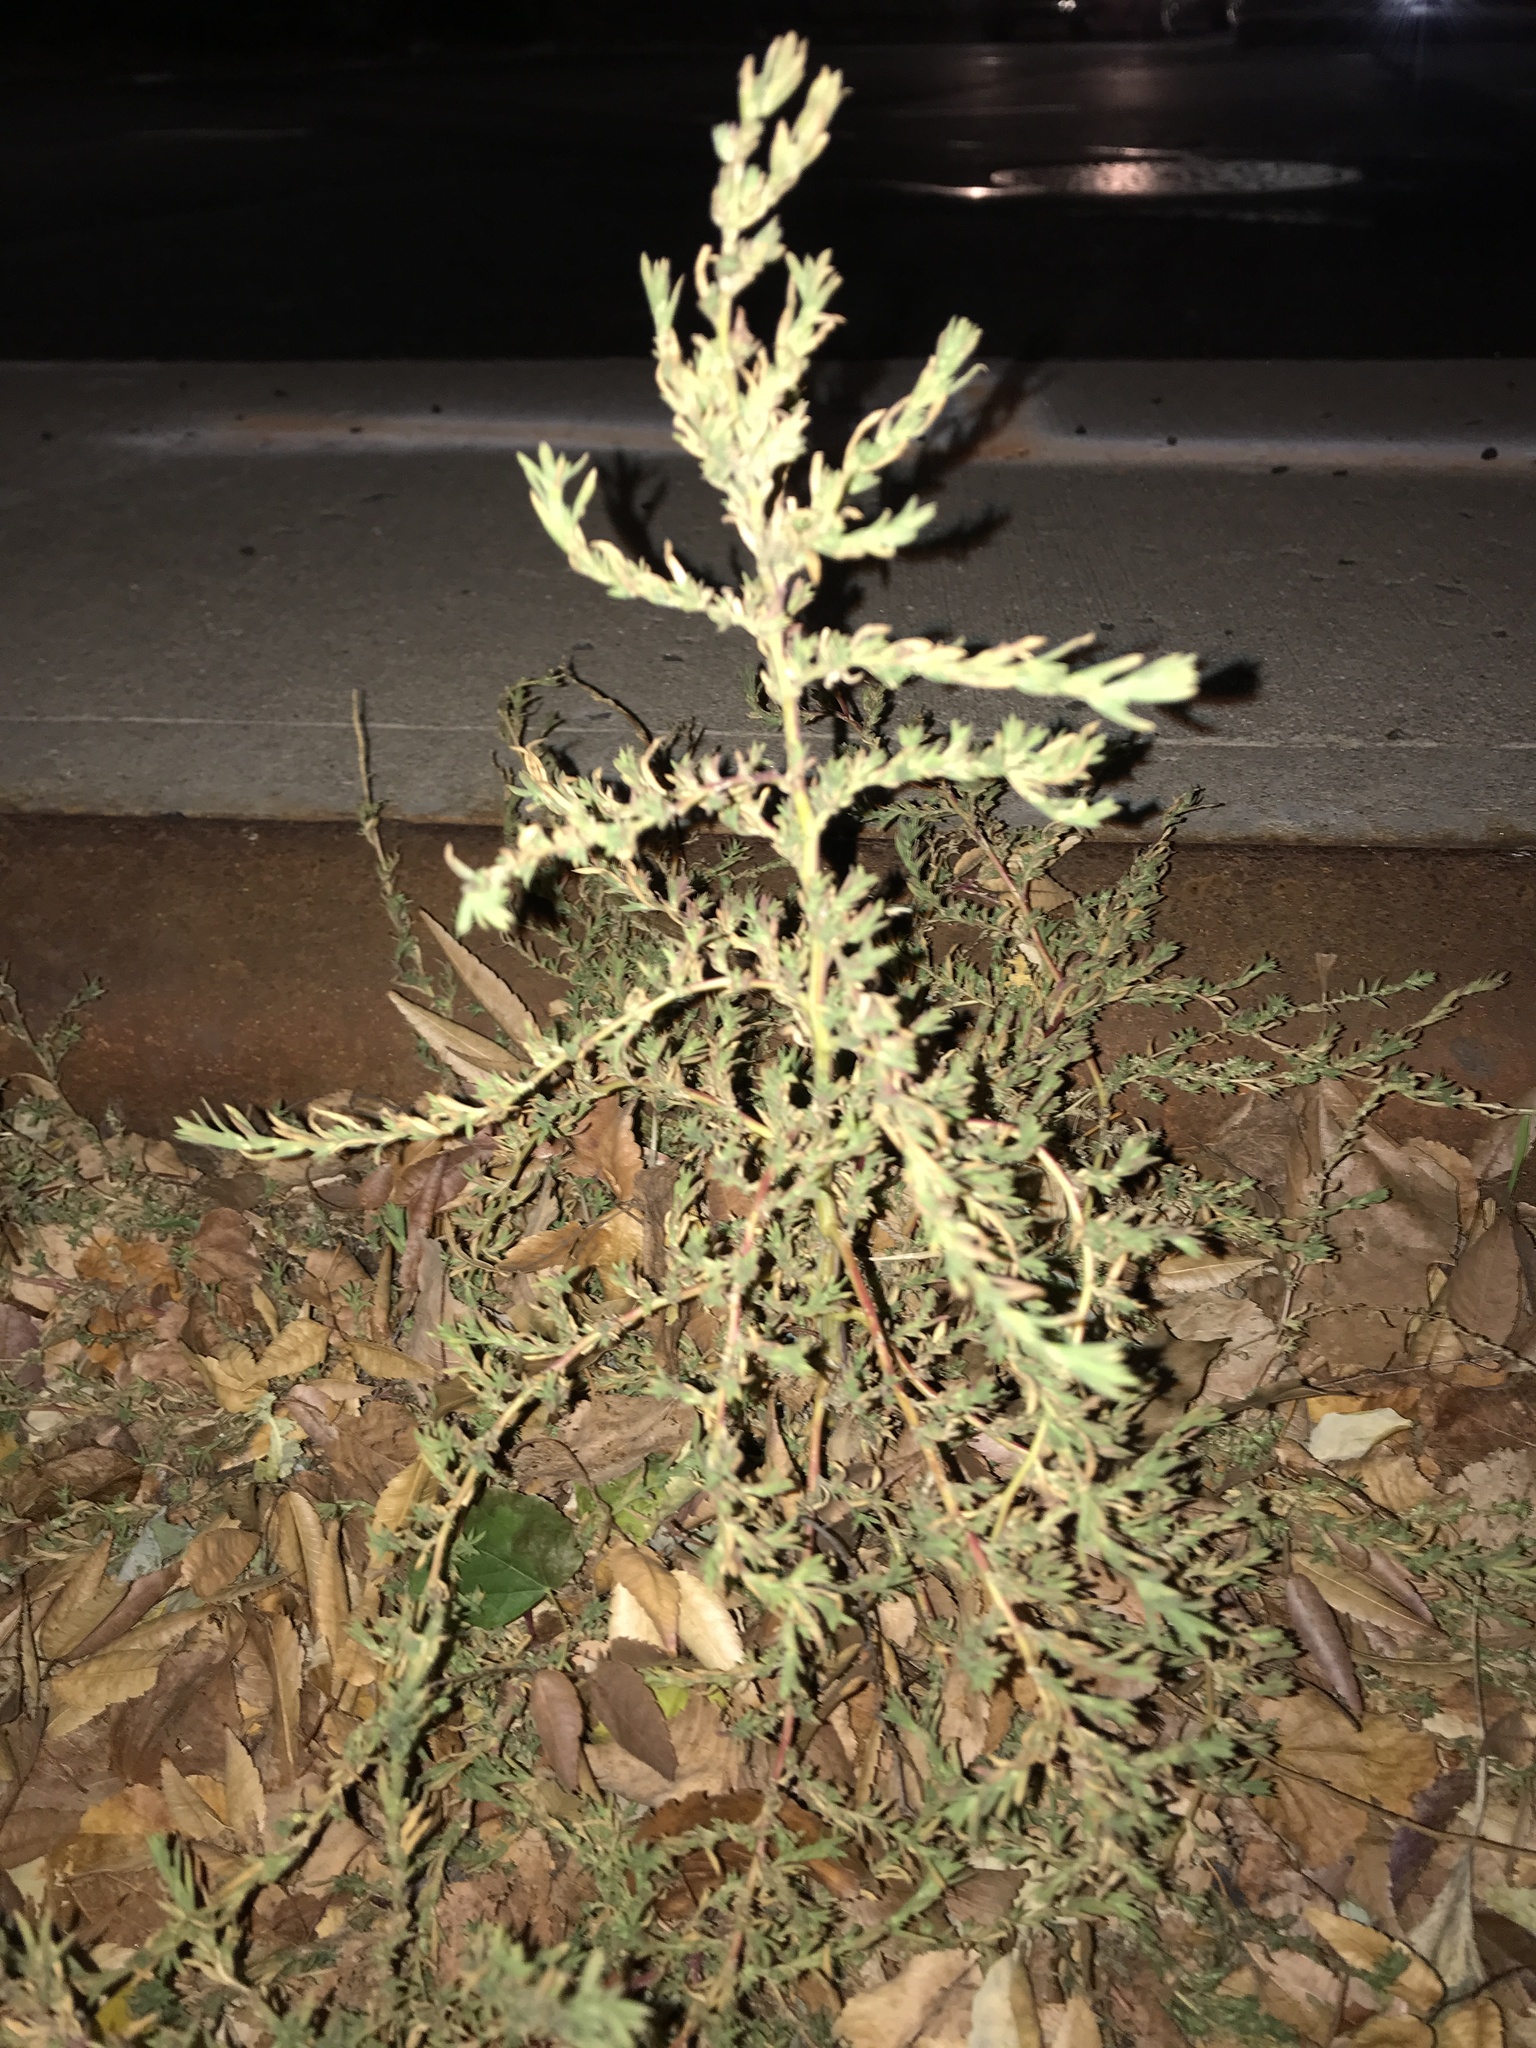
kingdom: Plantae
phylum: Tracheophyta
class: Magnoliopsida
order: Caryophyllales
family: Amaranthaceae
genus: Bassia
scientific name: Bassia scoparia
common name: Belvedere
